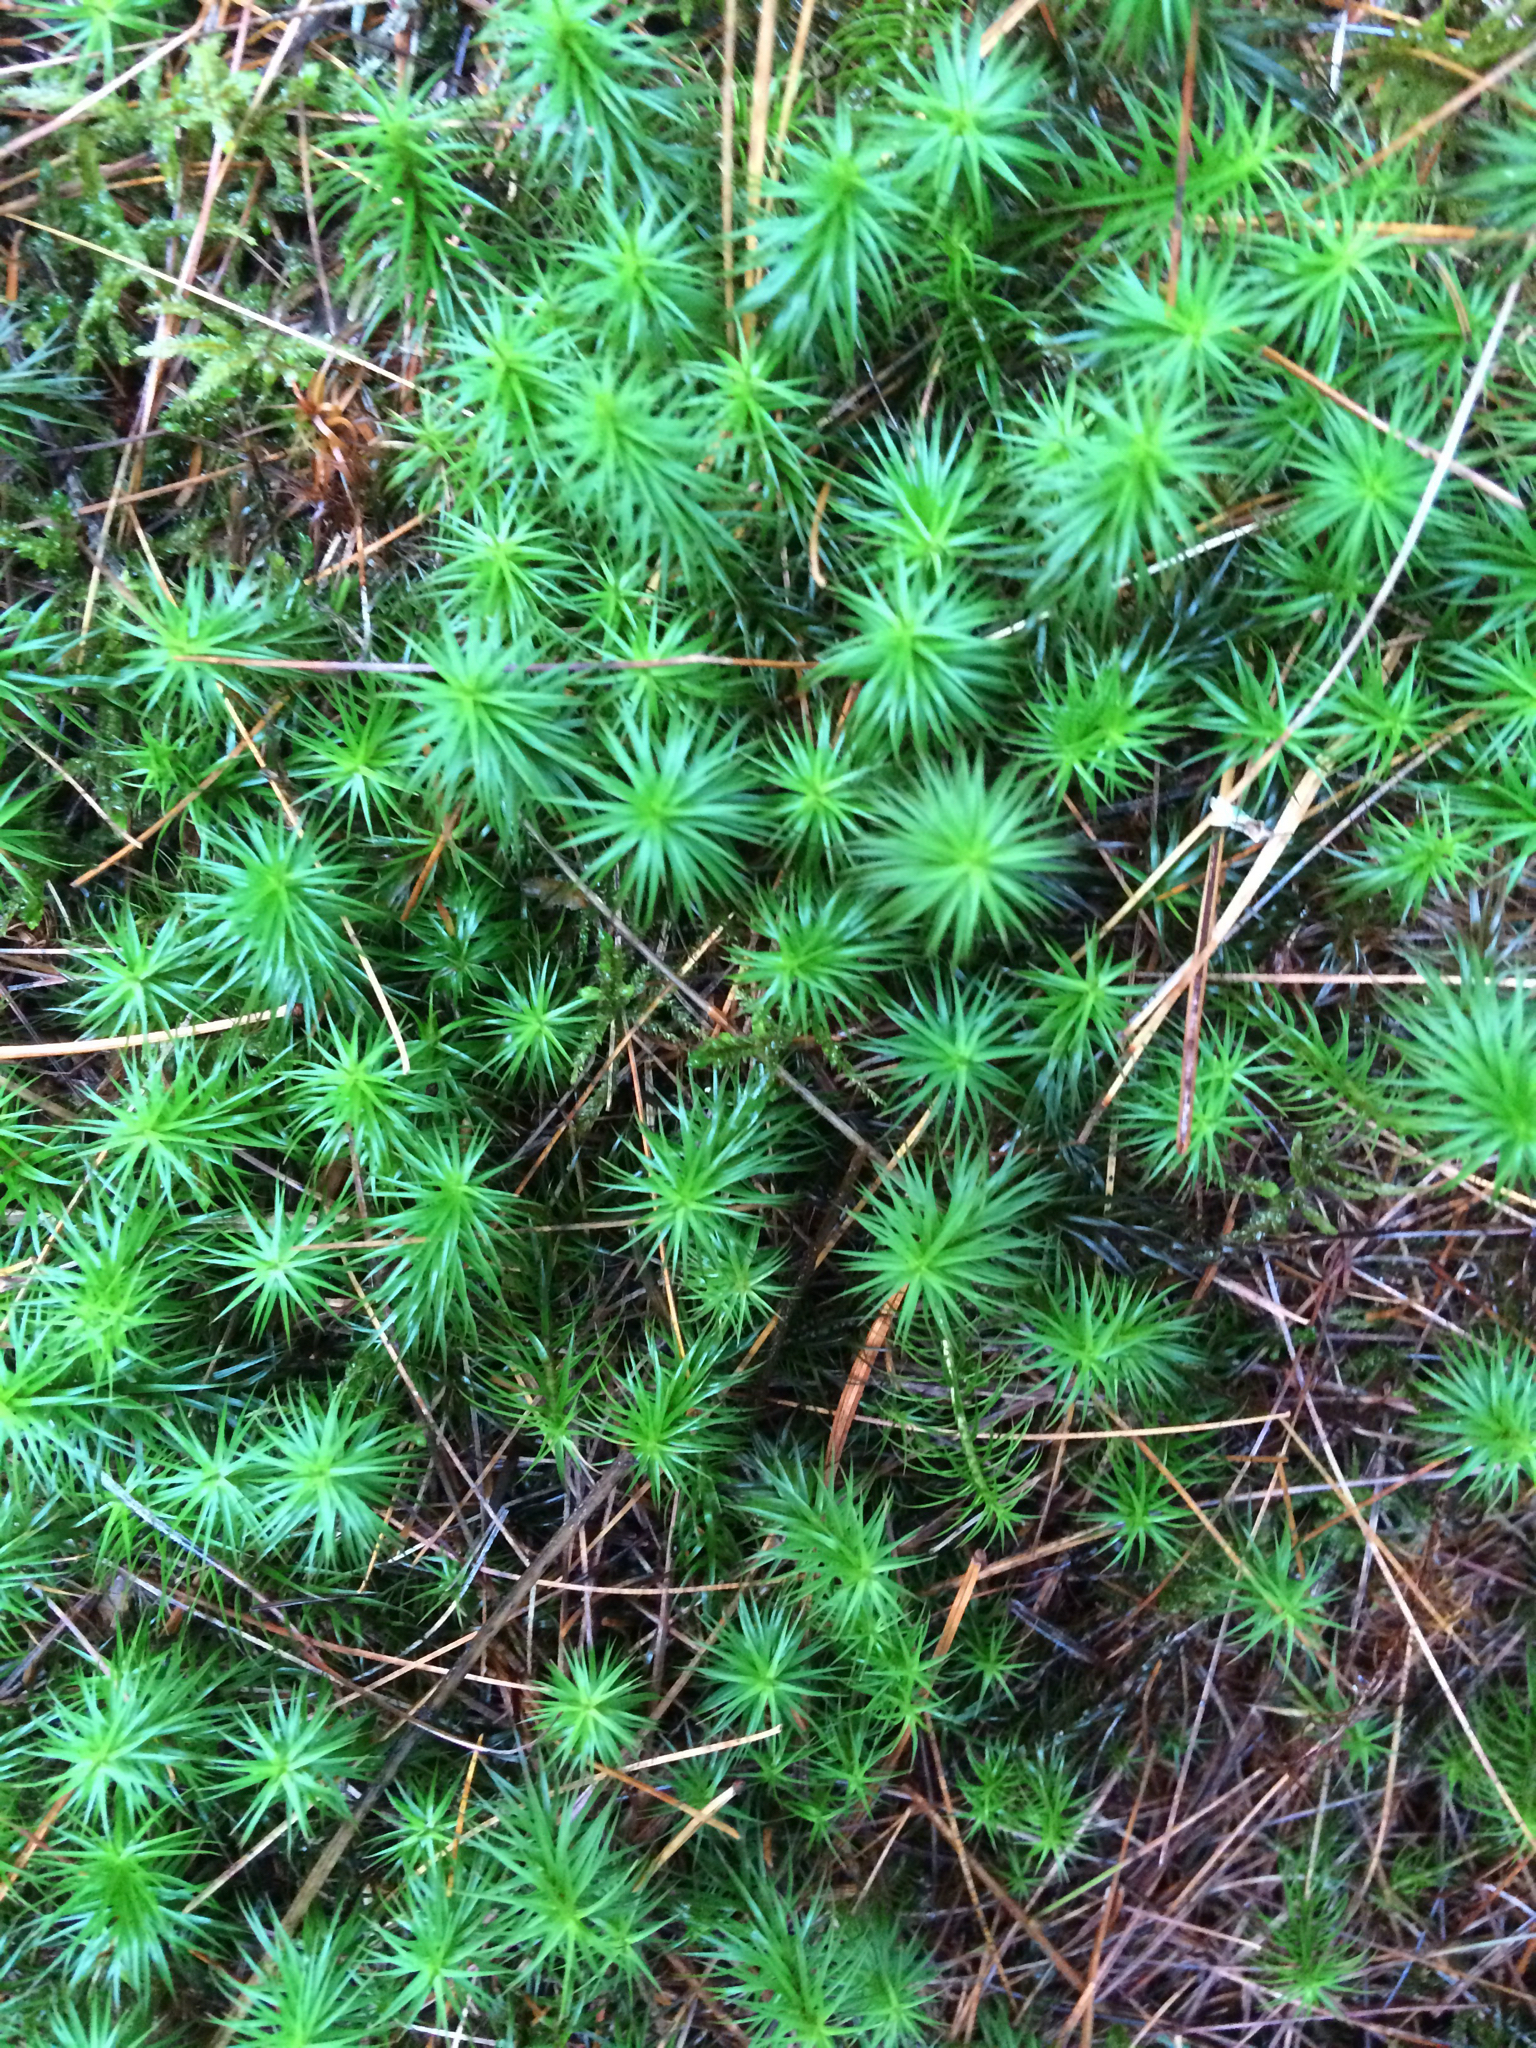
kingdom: Plantae
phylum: Bryophyta
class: Polytrichopsida
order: Polytrichales
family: Polytrichaceae
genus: Polytrichum
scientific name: Polytrichum
